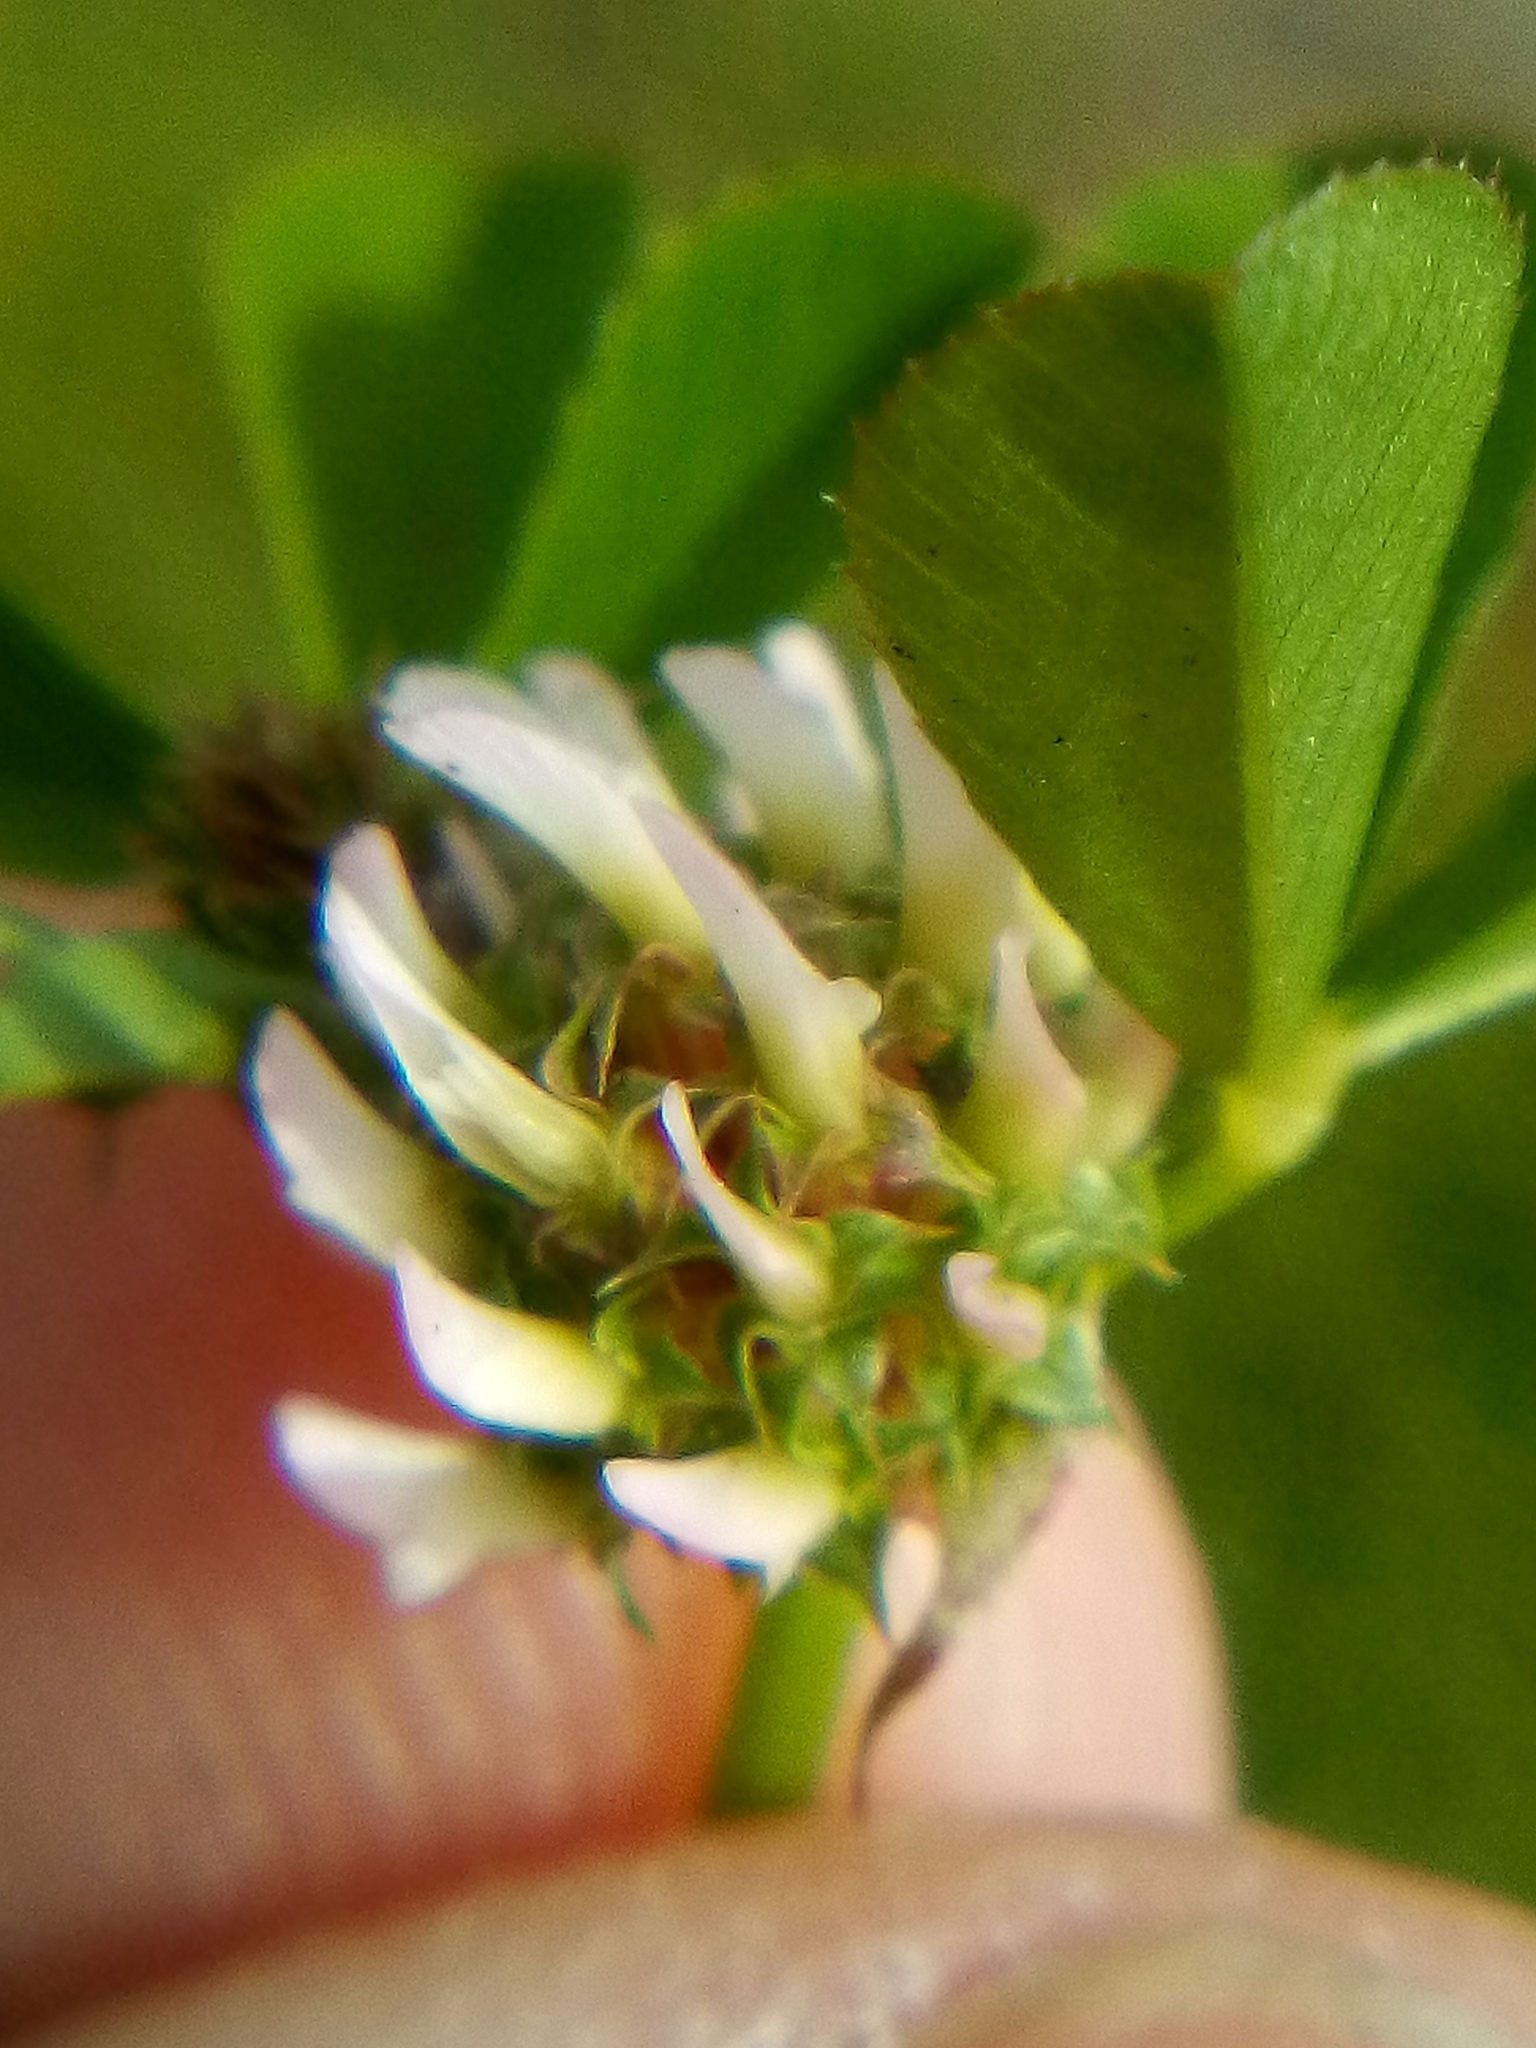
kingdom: Plantae
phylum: Tracheophyta
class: Magnoliopsida
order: Fabales
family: Fabaceae
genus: Trifolium
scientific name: Trifolium glomeratum
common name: Clustered clover
